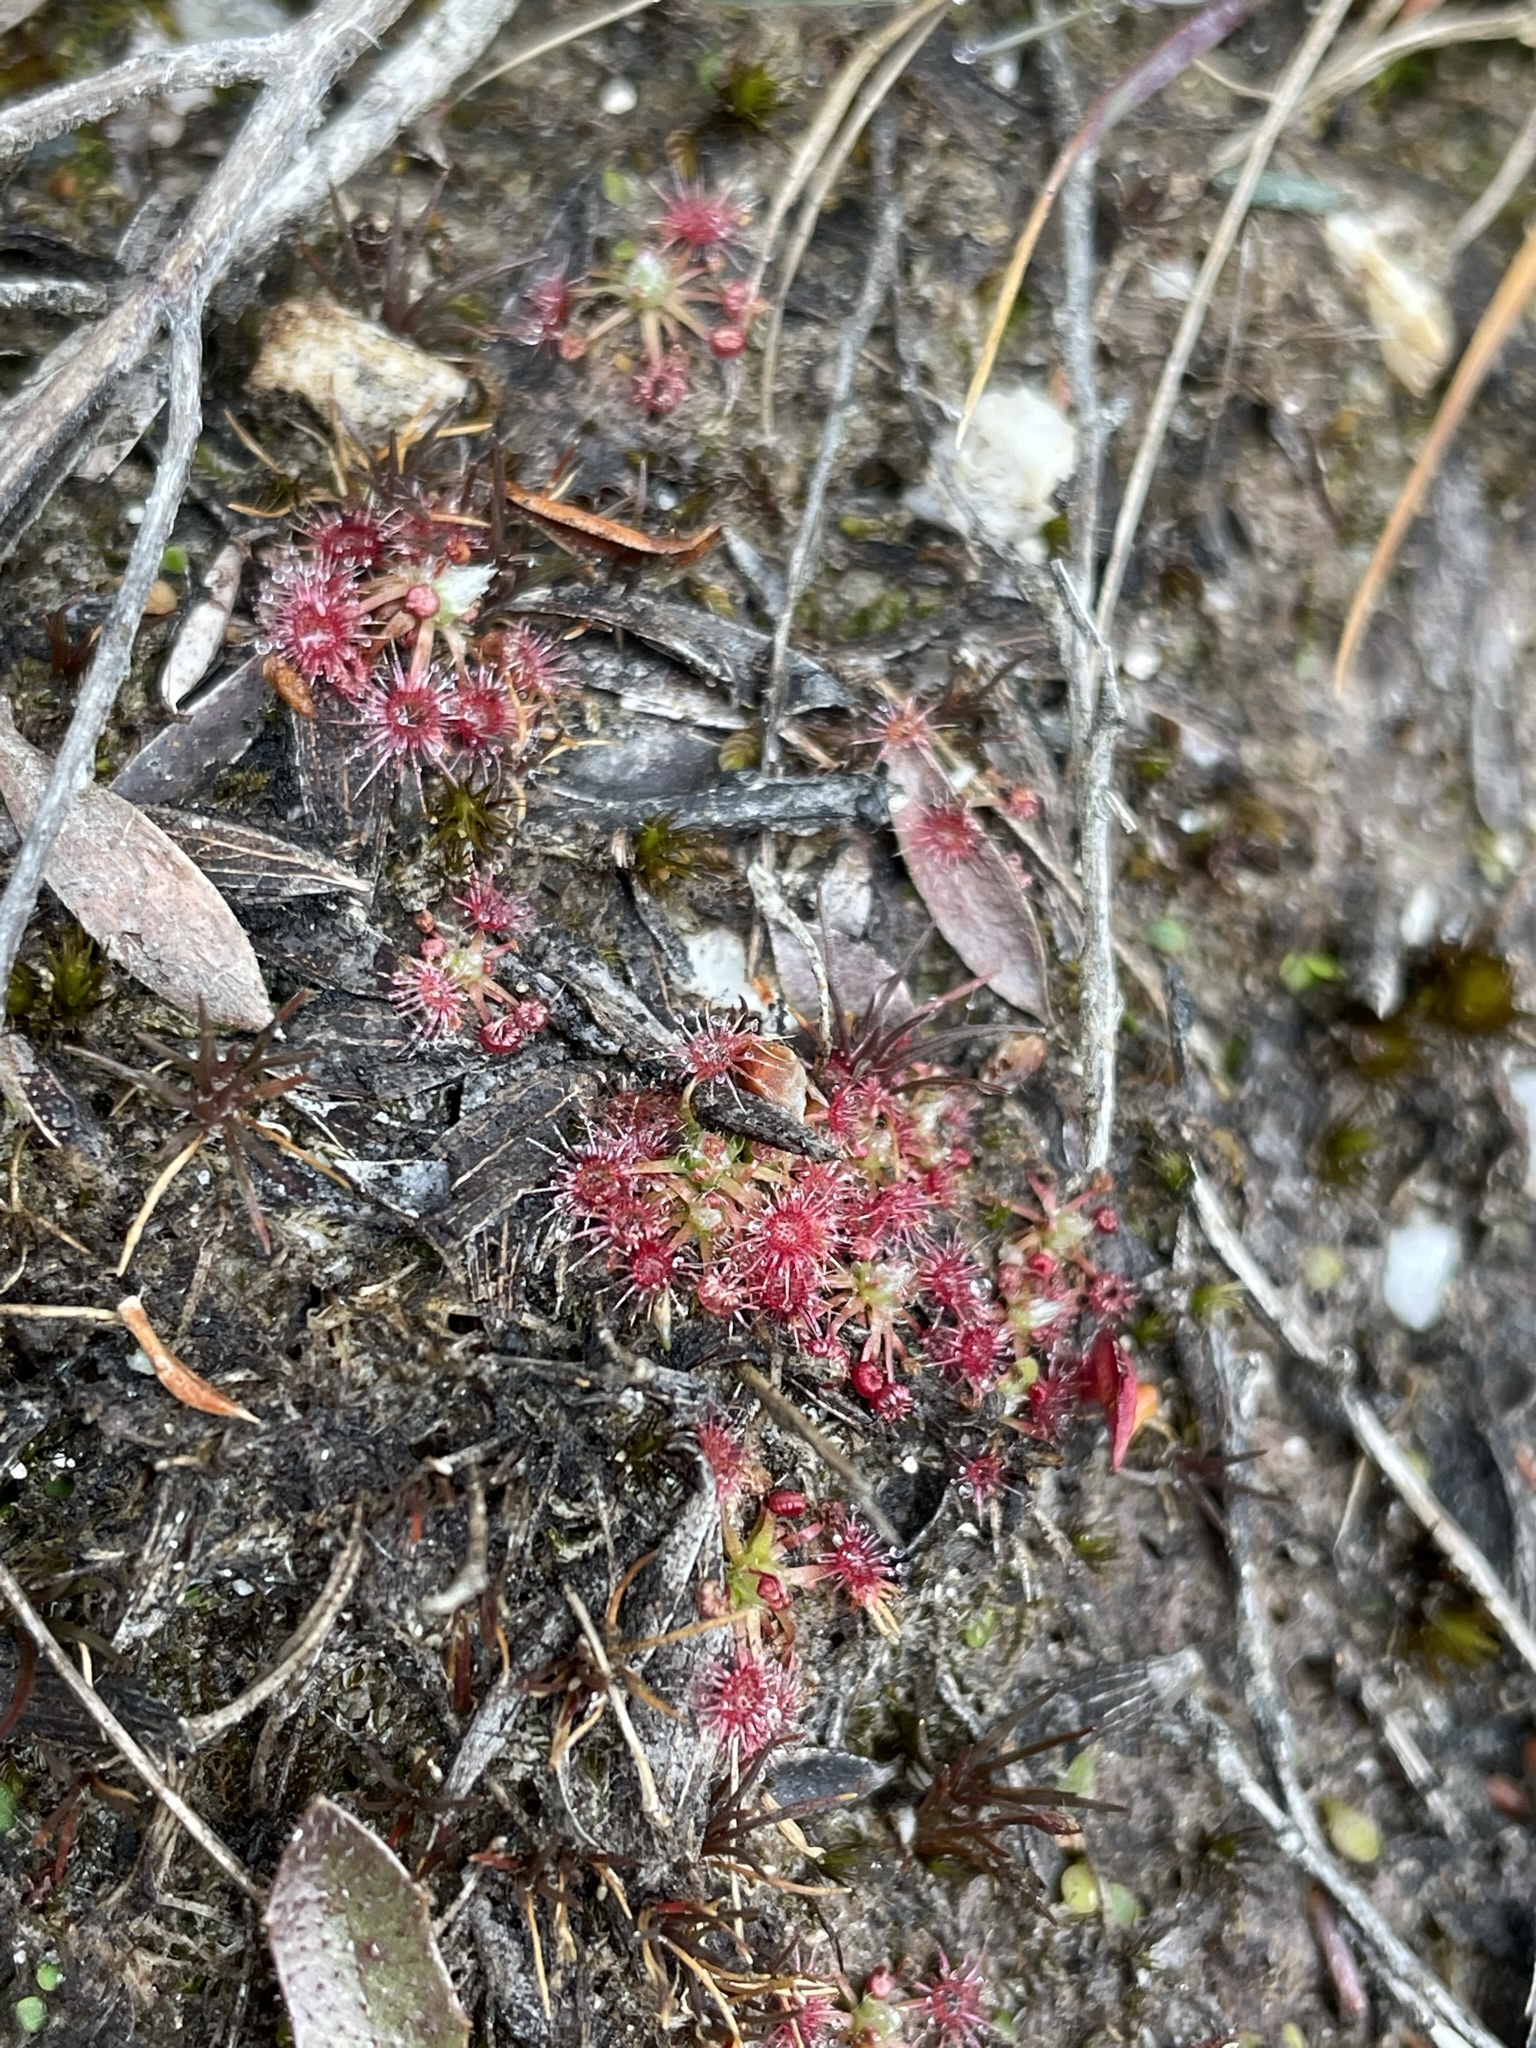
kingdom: Plantae
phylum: Tracheophyta
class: Magnoliopsida
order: Caryophyllales
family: Droseraceae
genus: Drosera
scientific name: Drosera pygmaea
